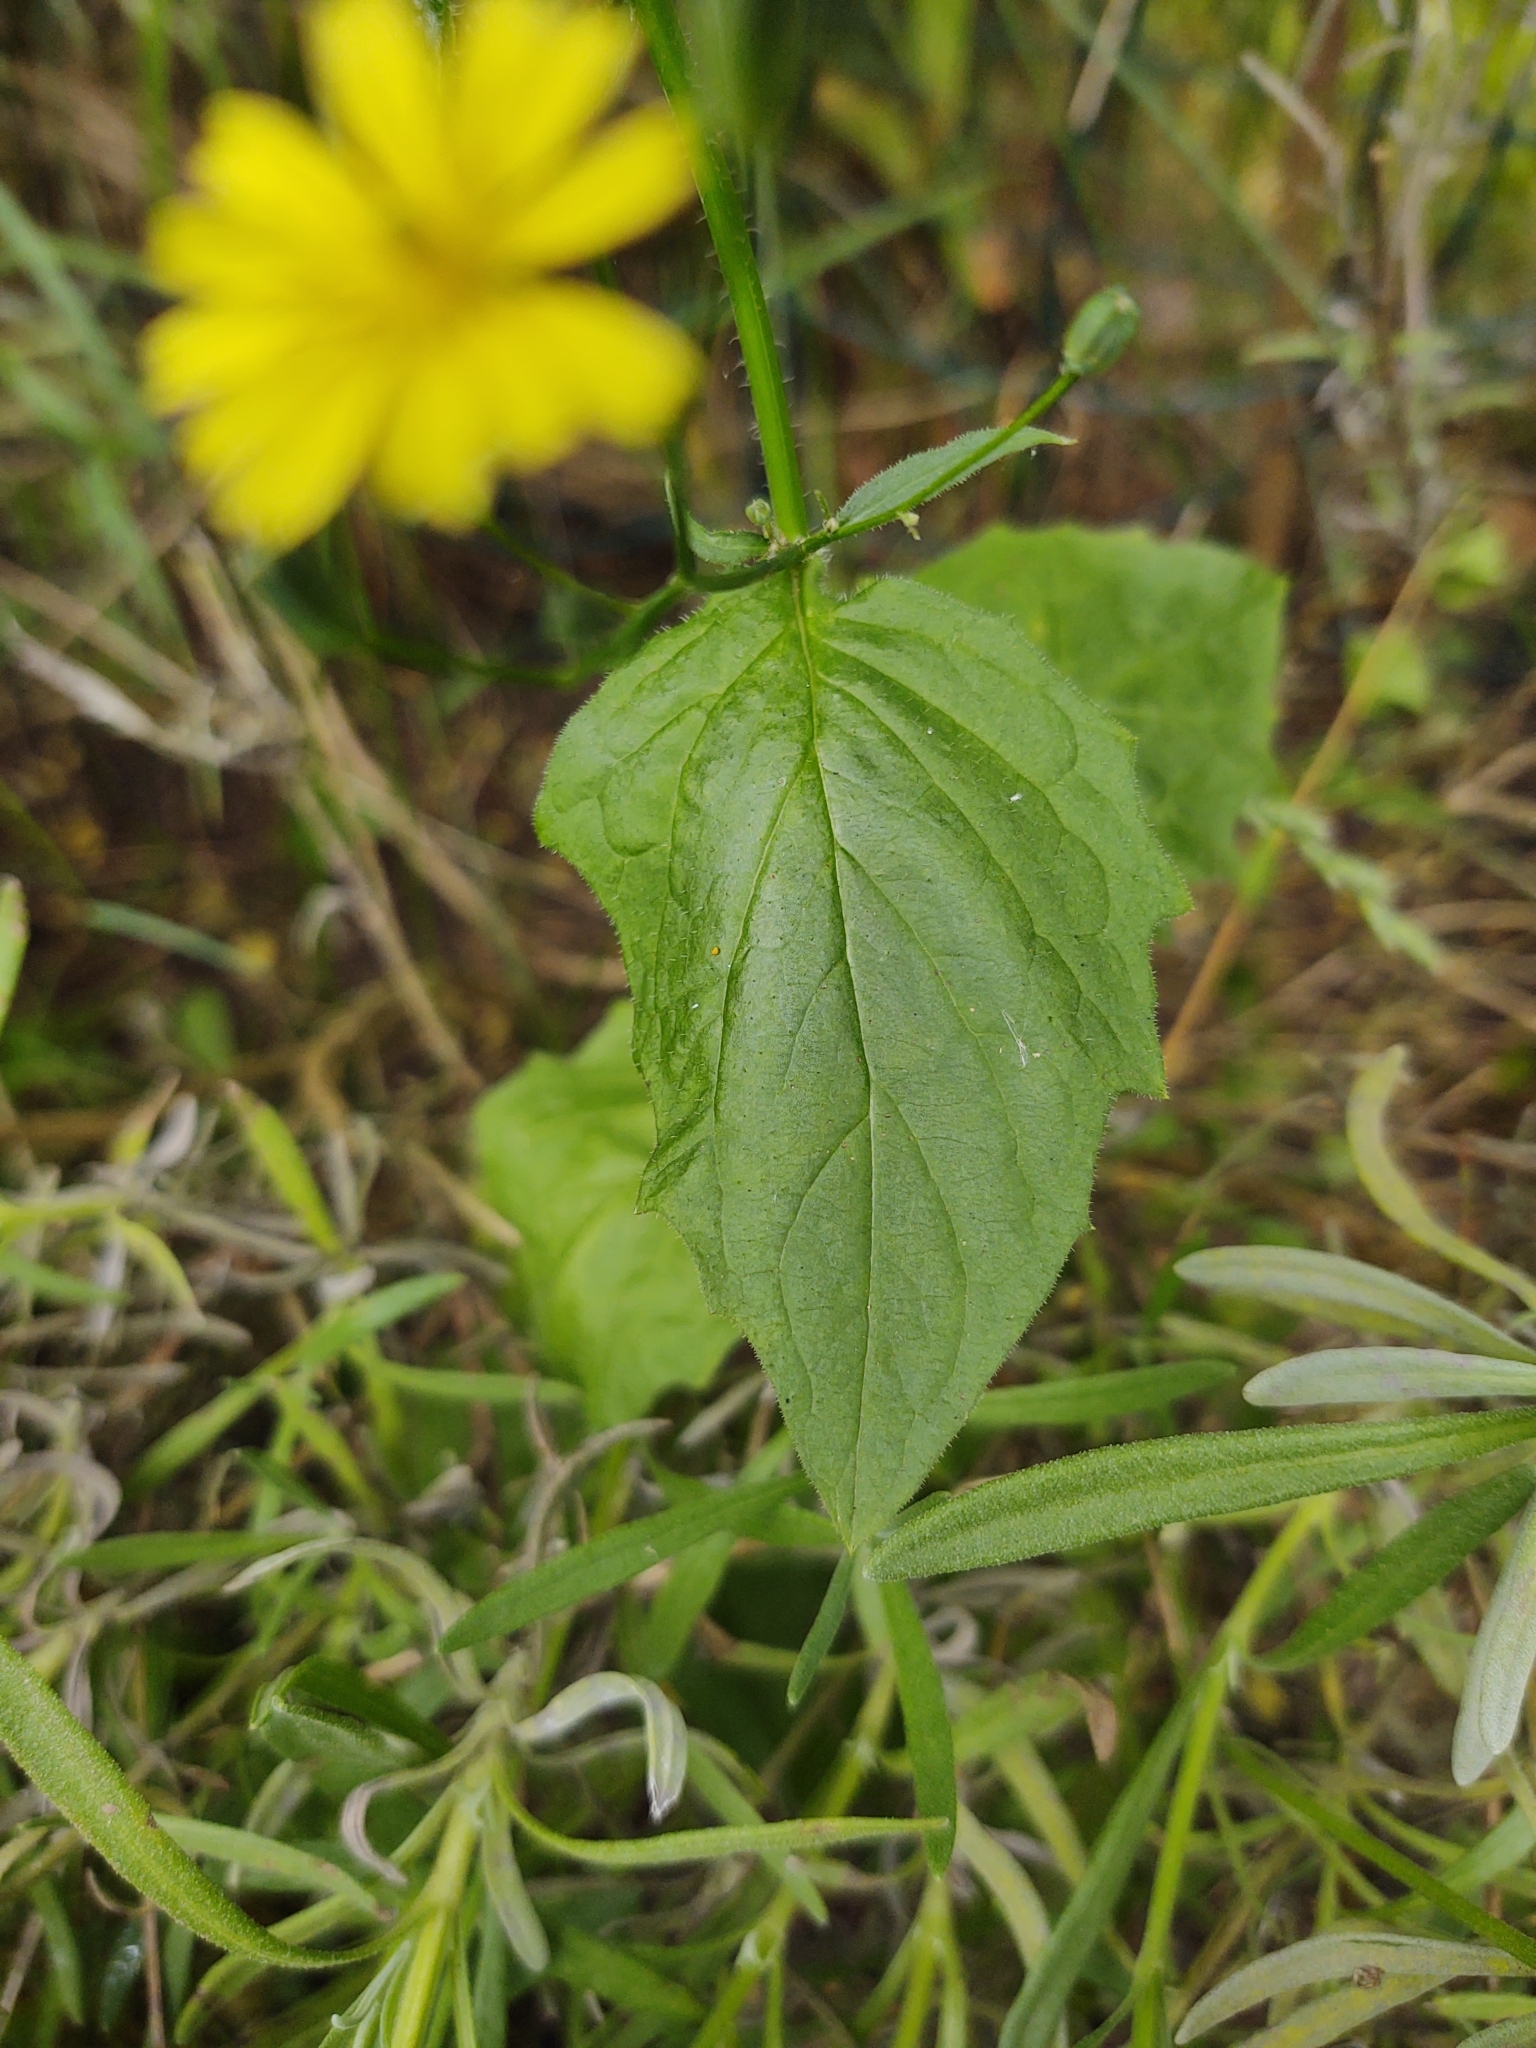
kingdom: Plantae
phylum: Tracheophyta
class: Magnoliopsida
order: Asterales
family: Asteraceae
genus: Lapsana
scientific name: Lapsana communis
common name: Nipplewort
